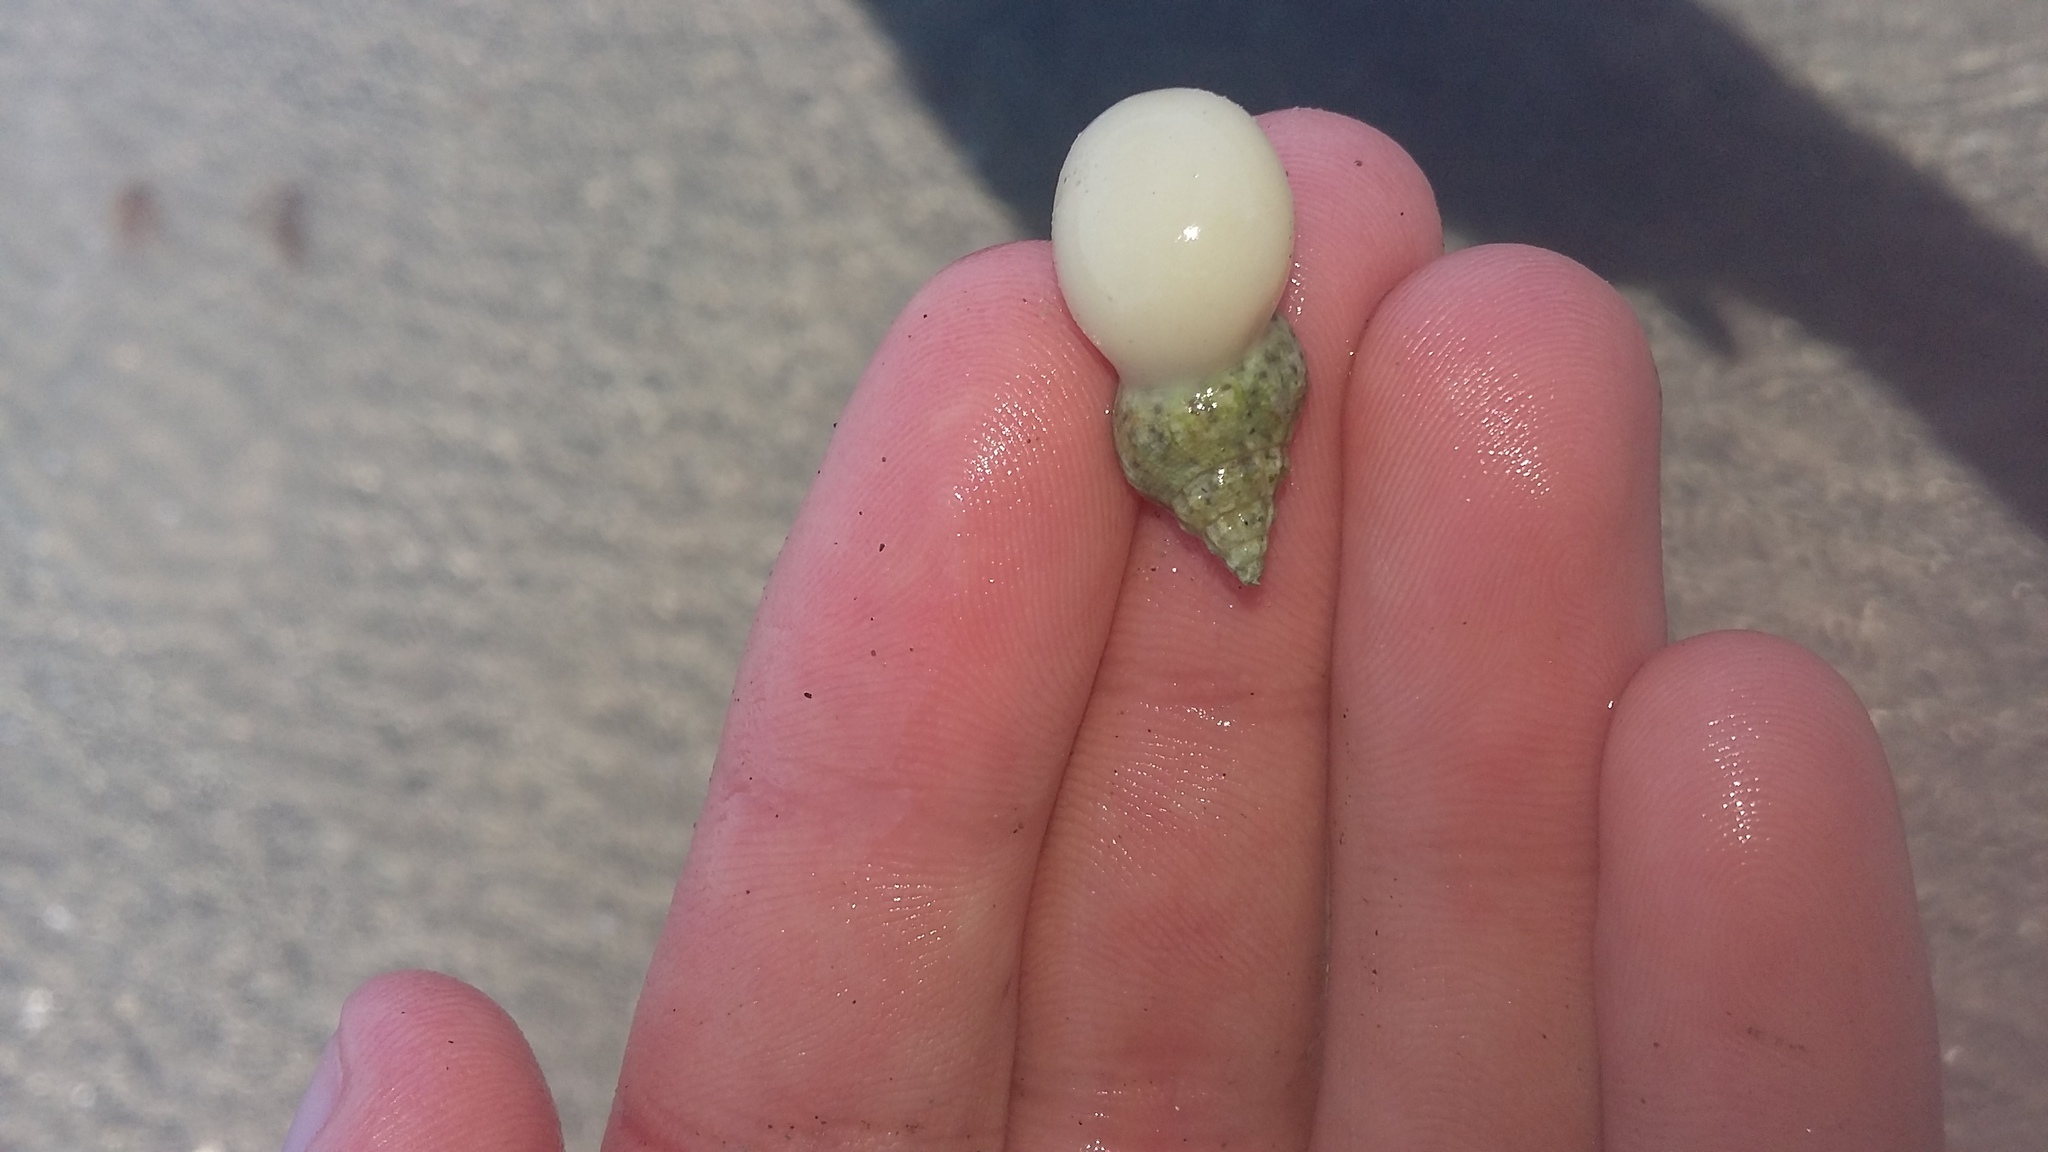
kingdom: Animalia
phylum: Mollusca
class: Gastropoda
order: Neogastropoda
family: Volutidae
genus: Alcithoe
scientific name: Alcithoe arabica
